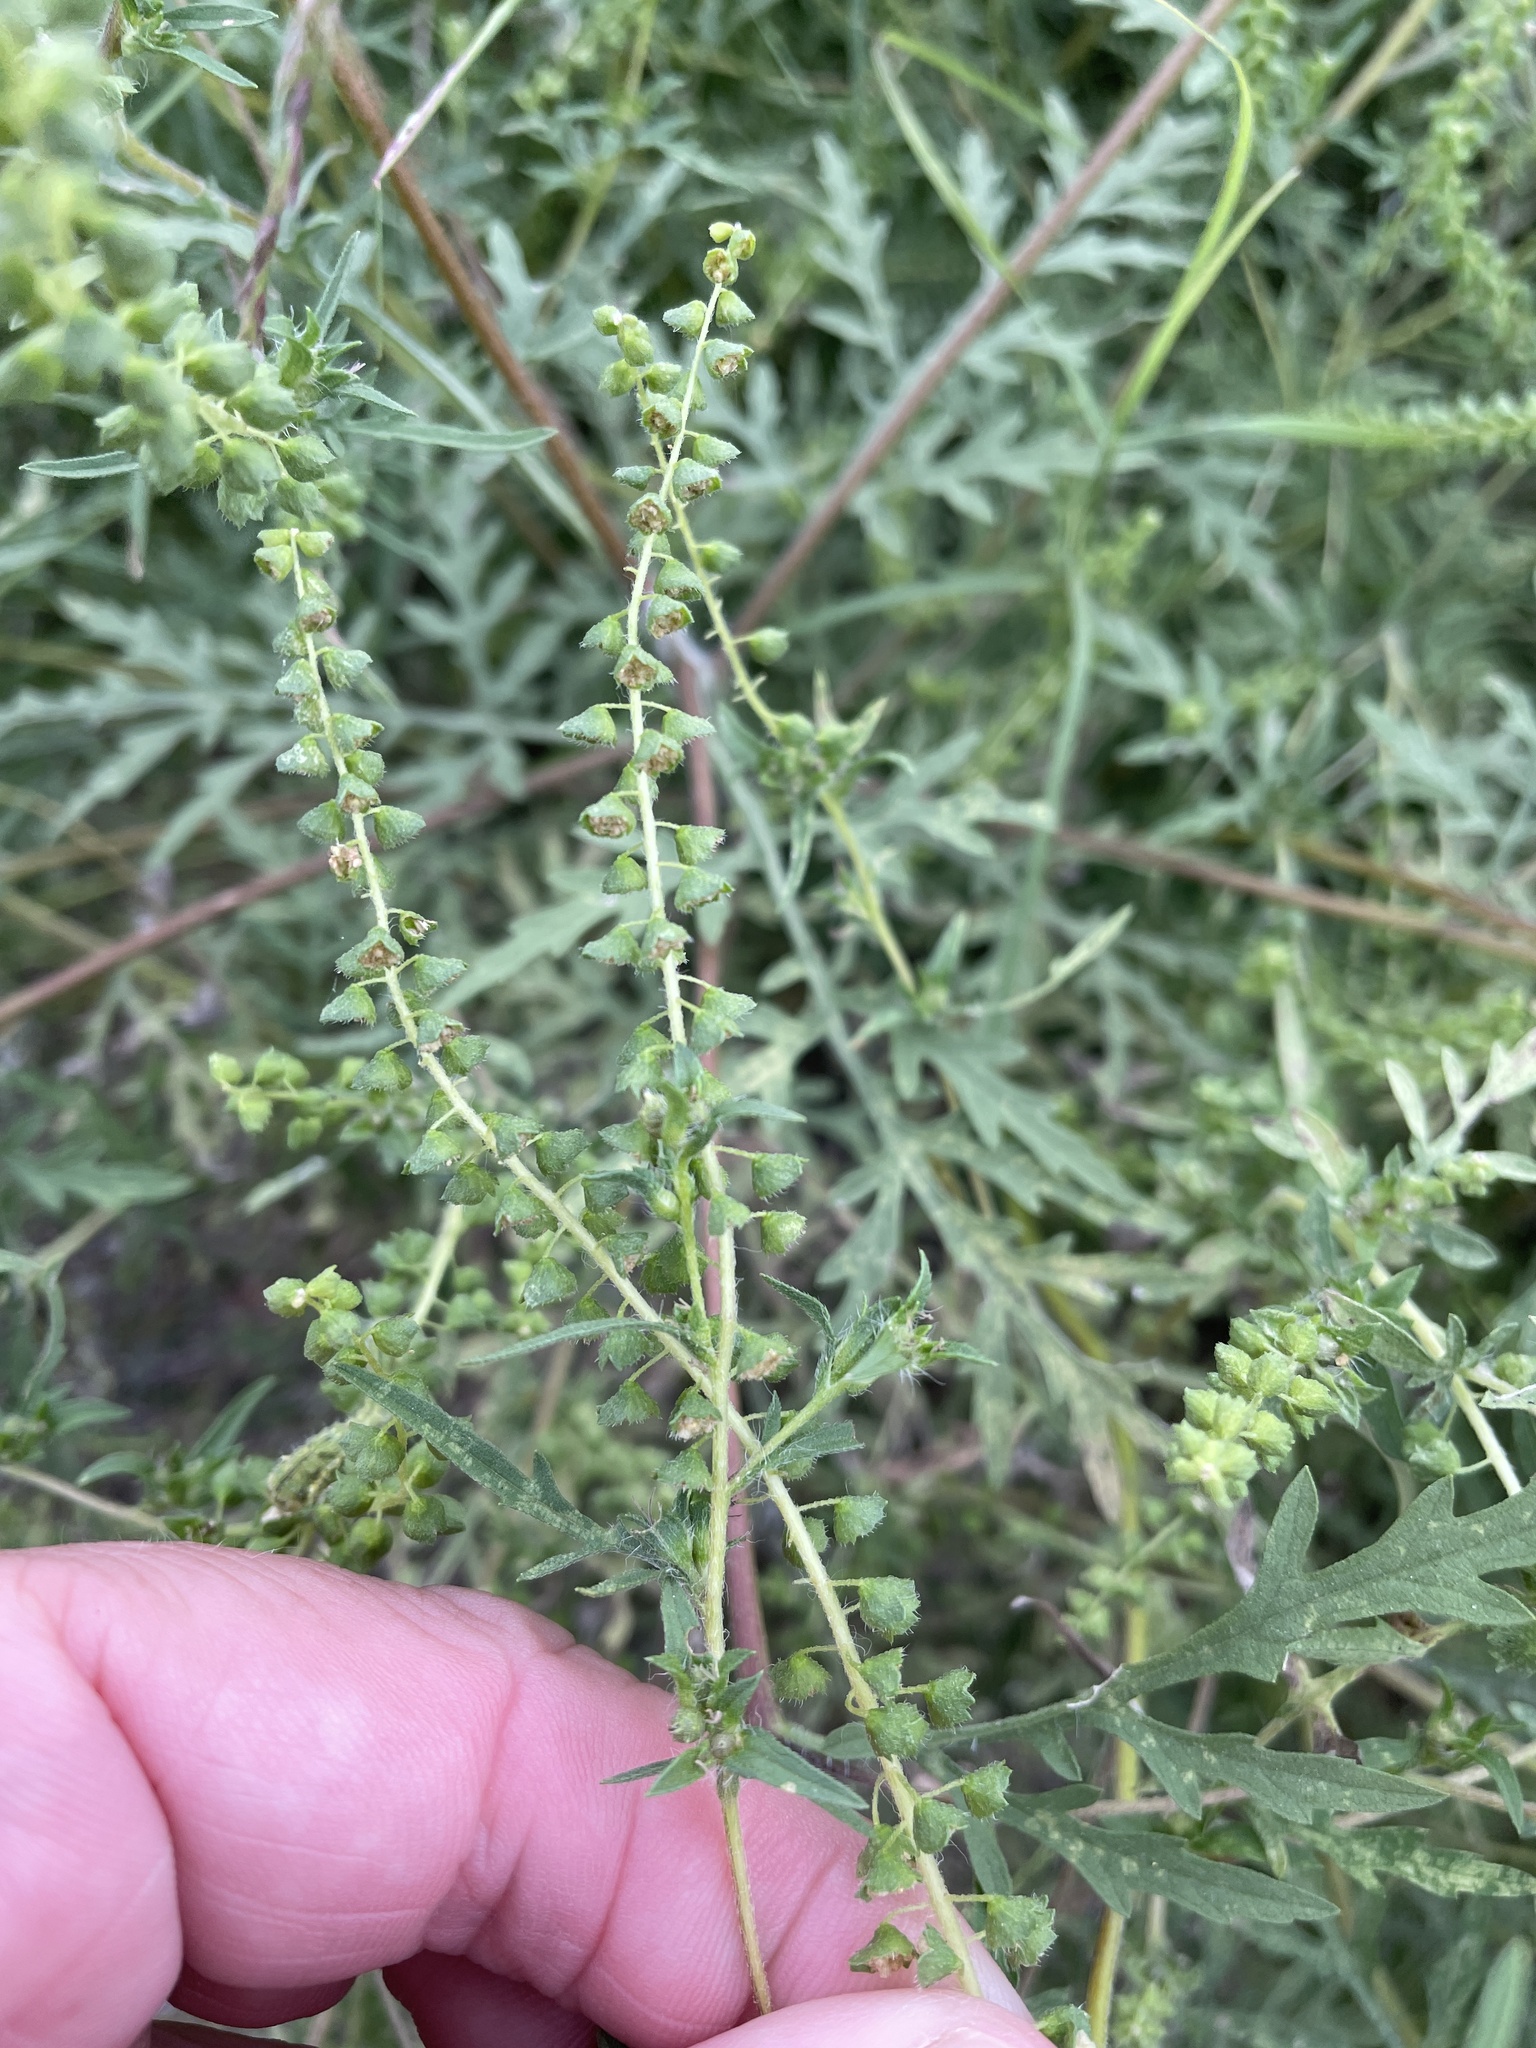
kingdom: Plantae
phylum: Tracheophyta
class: Magnoliopsida
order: Asterales
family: Asteraceae
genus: Ambrosia
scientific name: Ambrosia psilostachya
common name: Perennial ragweed
